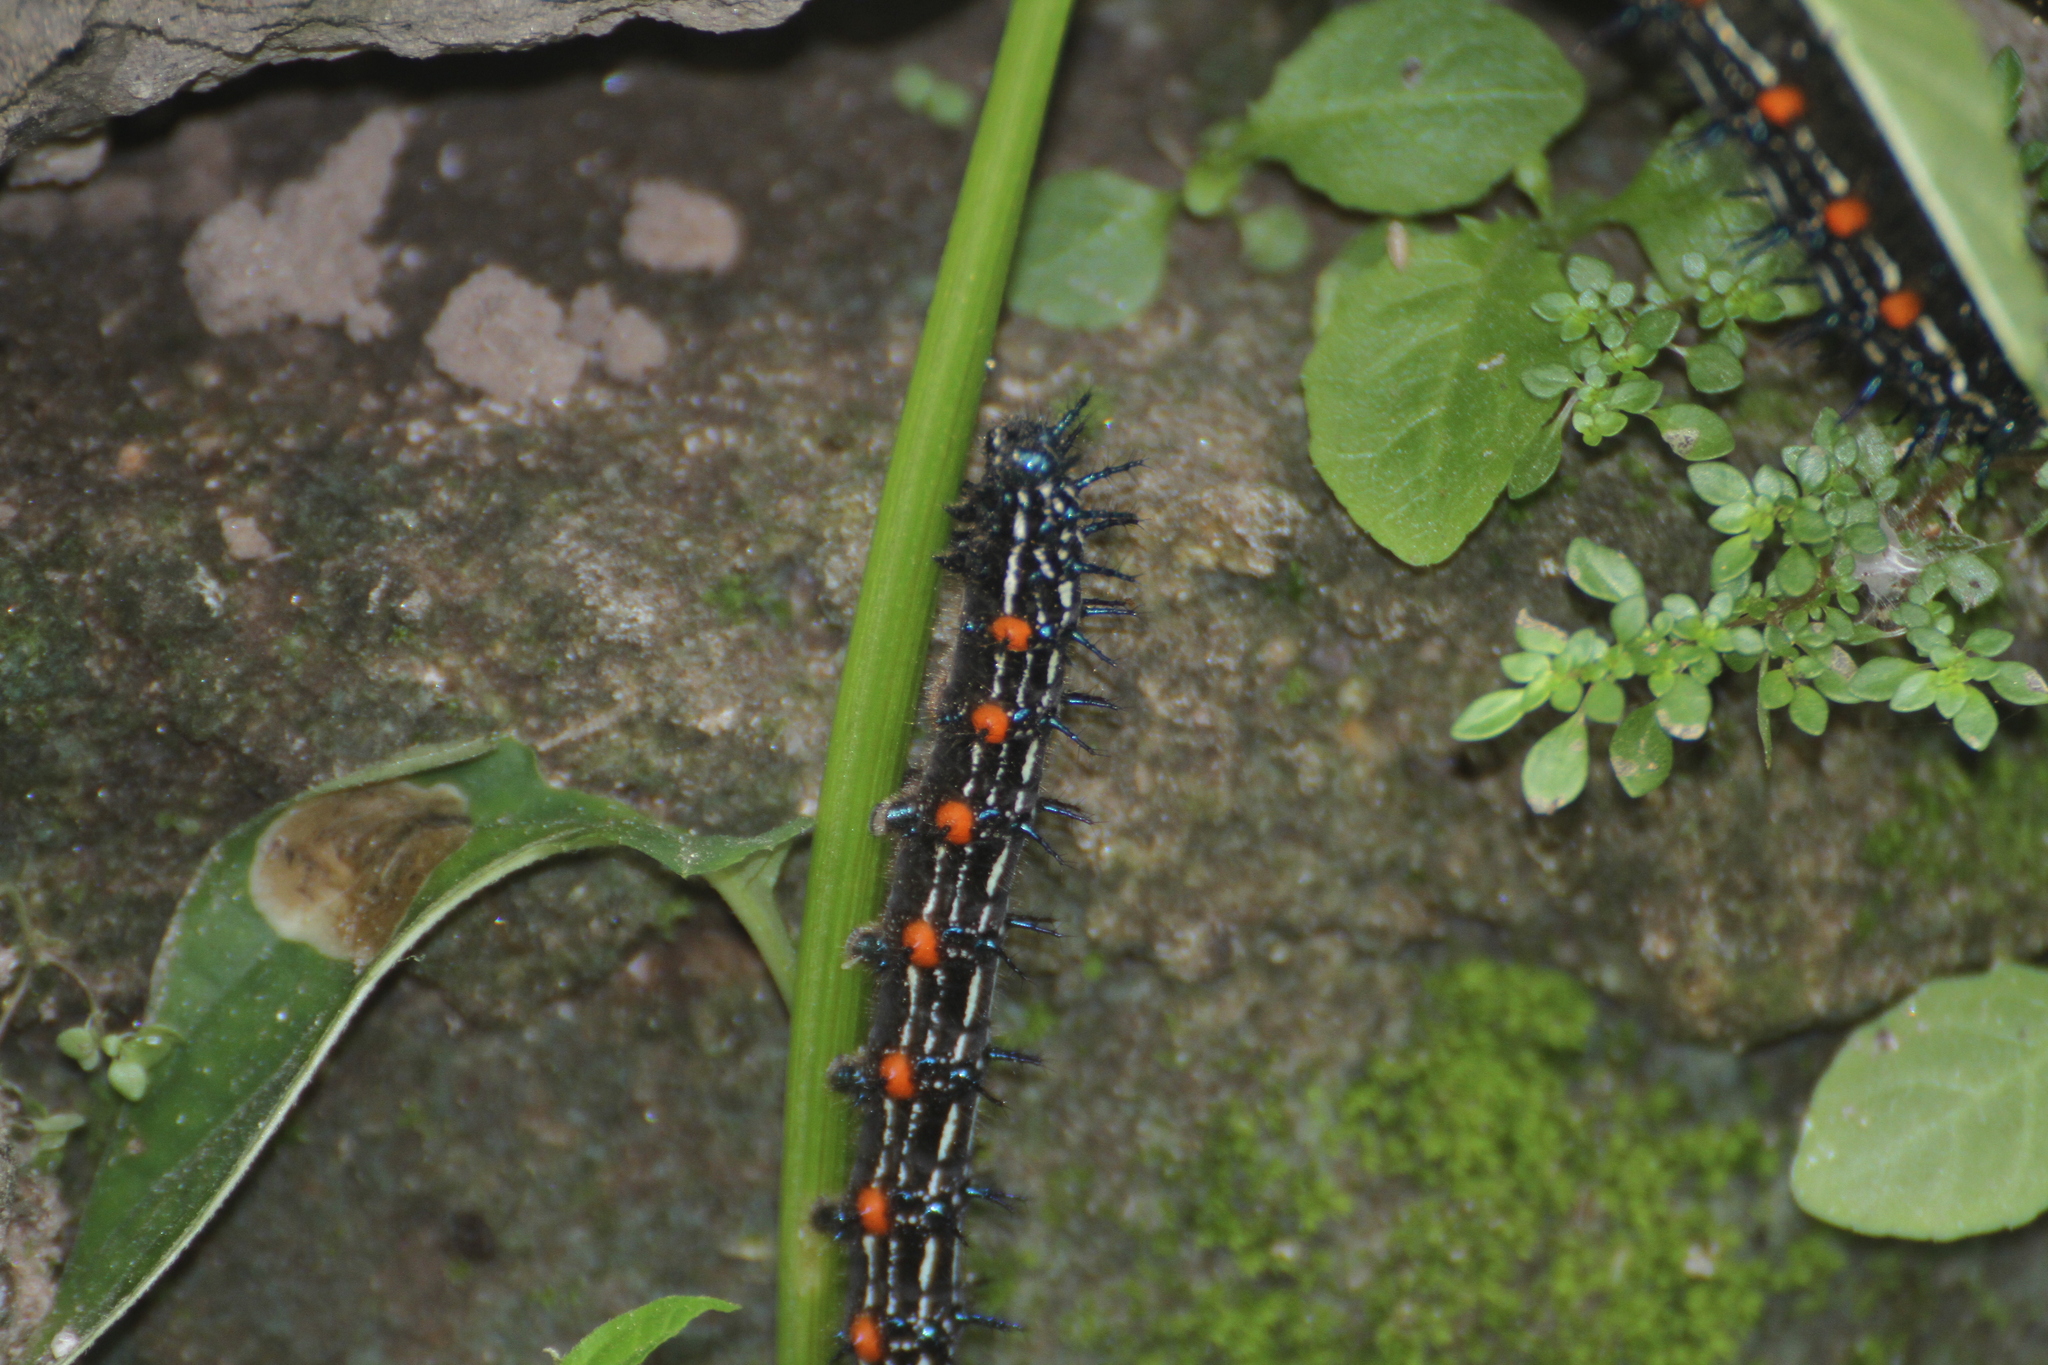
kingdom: Animalia
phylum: Arthropoda
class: Insecta
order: Lepidoptera
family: Nymphalidae
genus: Doleschallia
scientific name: Doleschallia bisaltide
